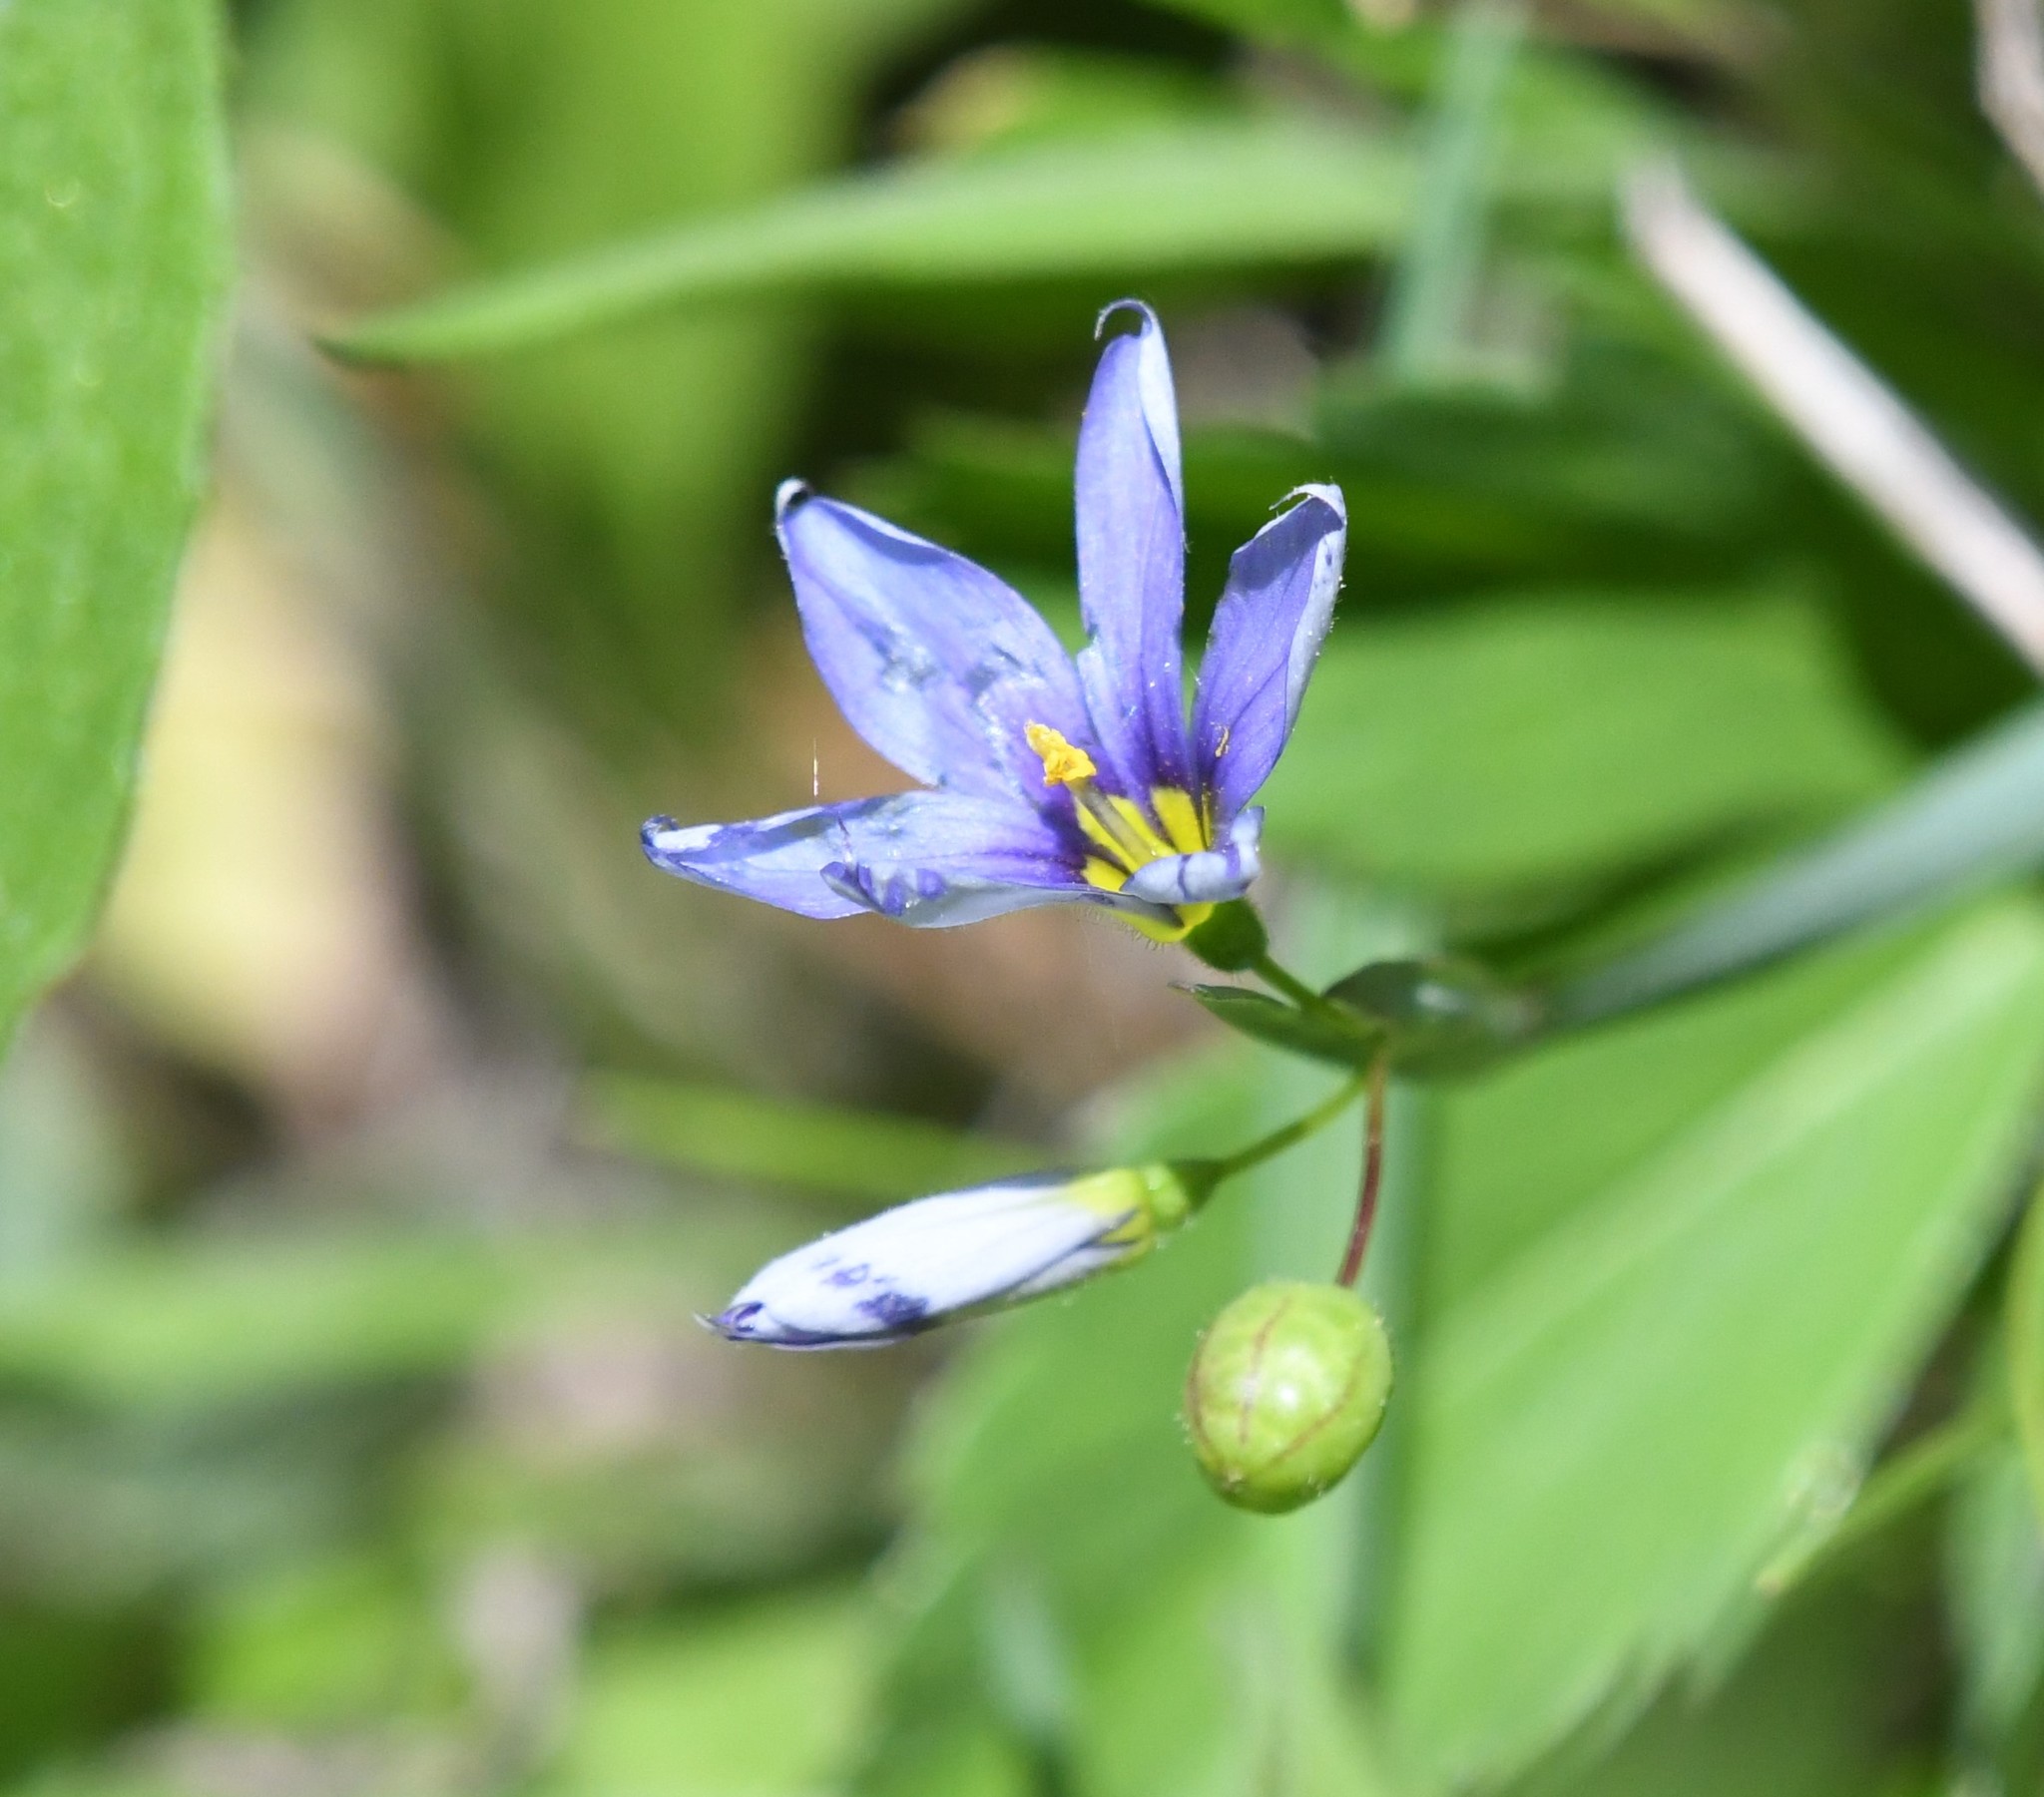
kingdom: Plantae
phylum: Tracheophyta
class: Liliopsida
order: Asparagales
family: Iridaceae
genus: Sisyrinchium
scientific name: Sisyrinchium montanum
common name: American blue-eyed-grass
